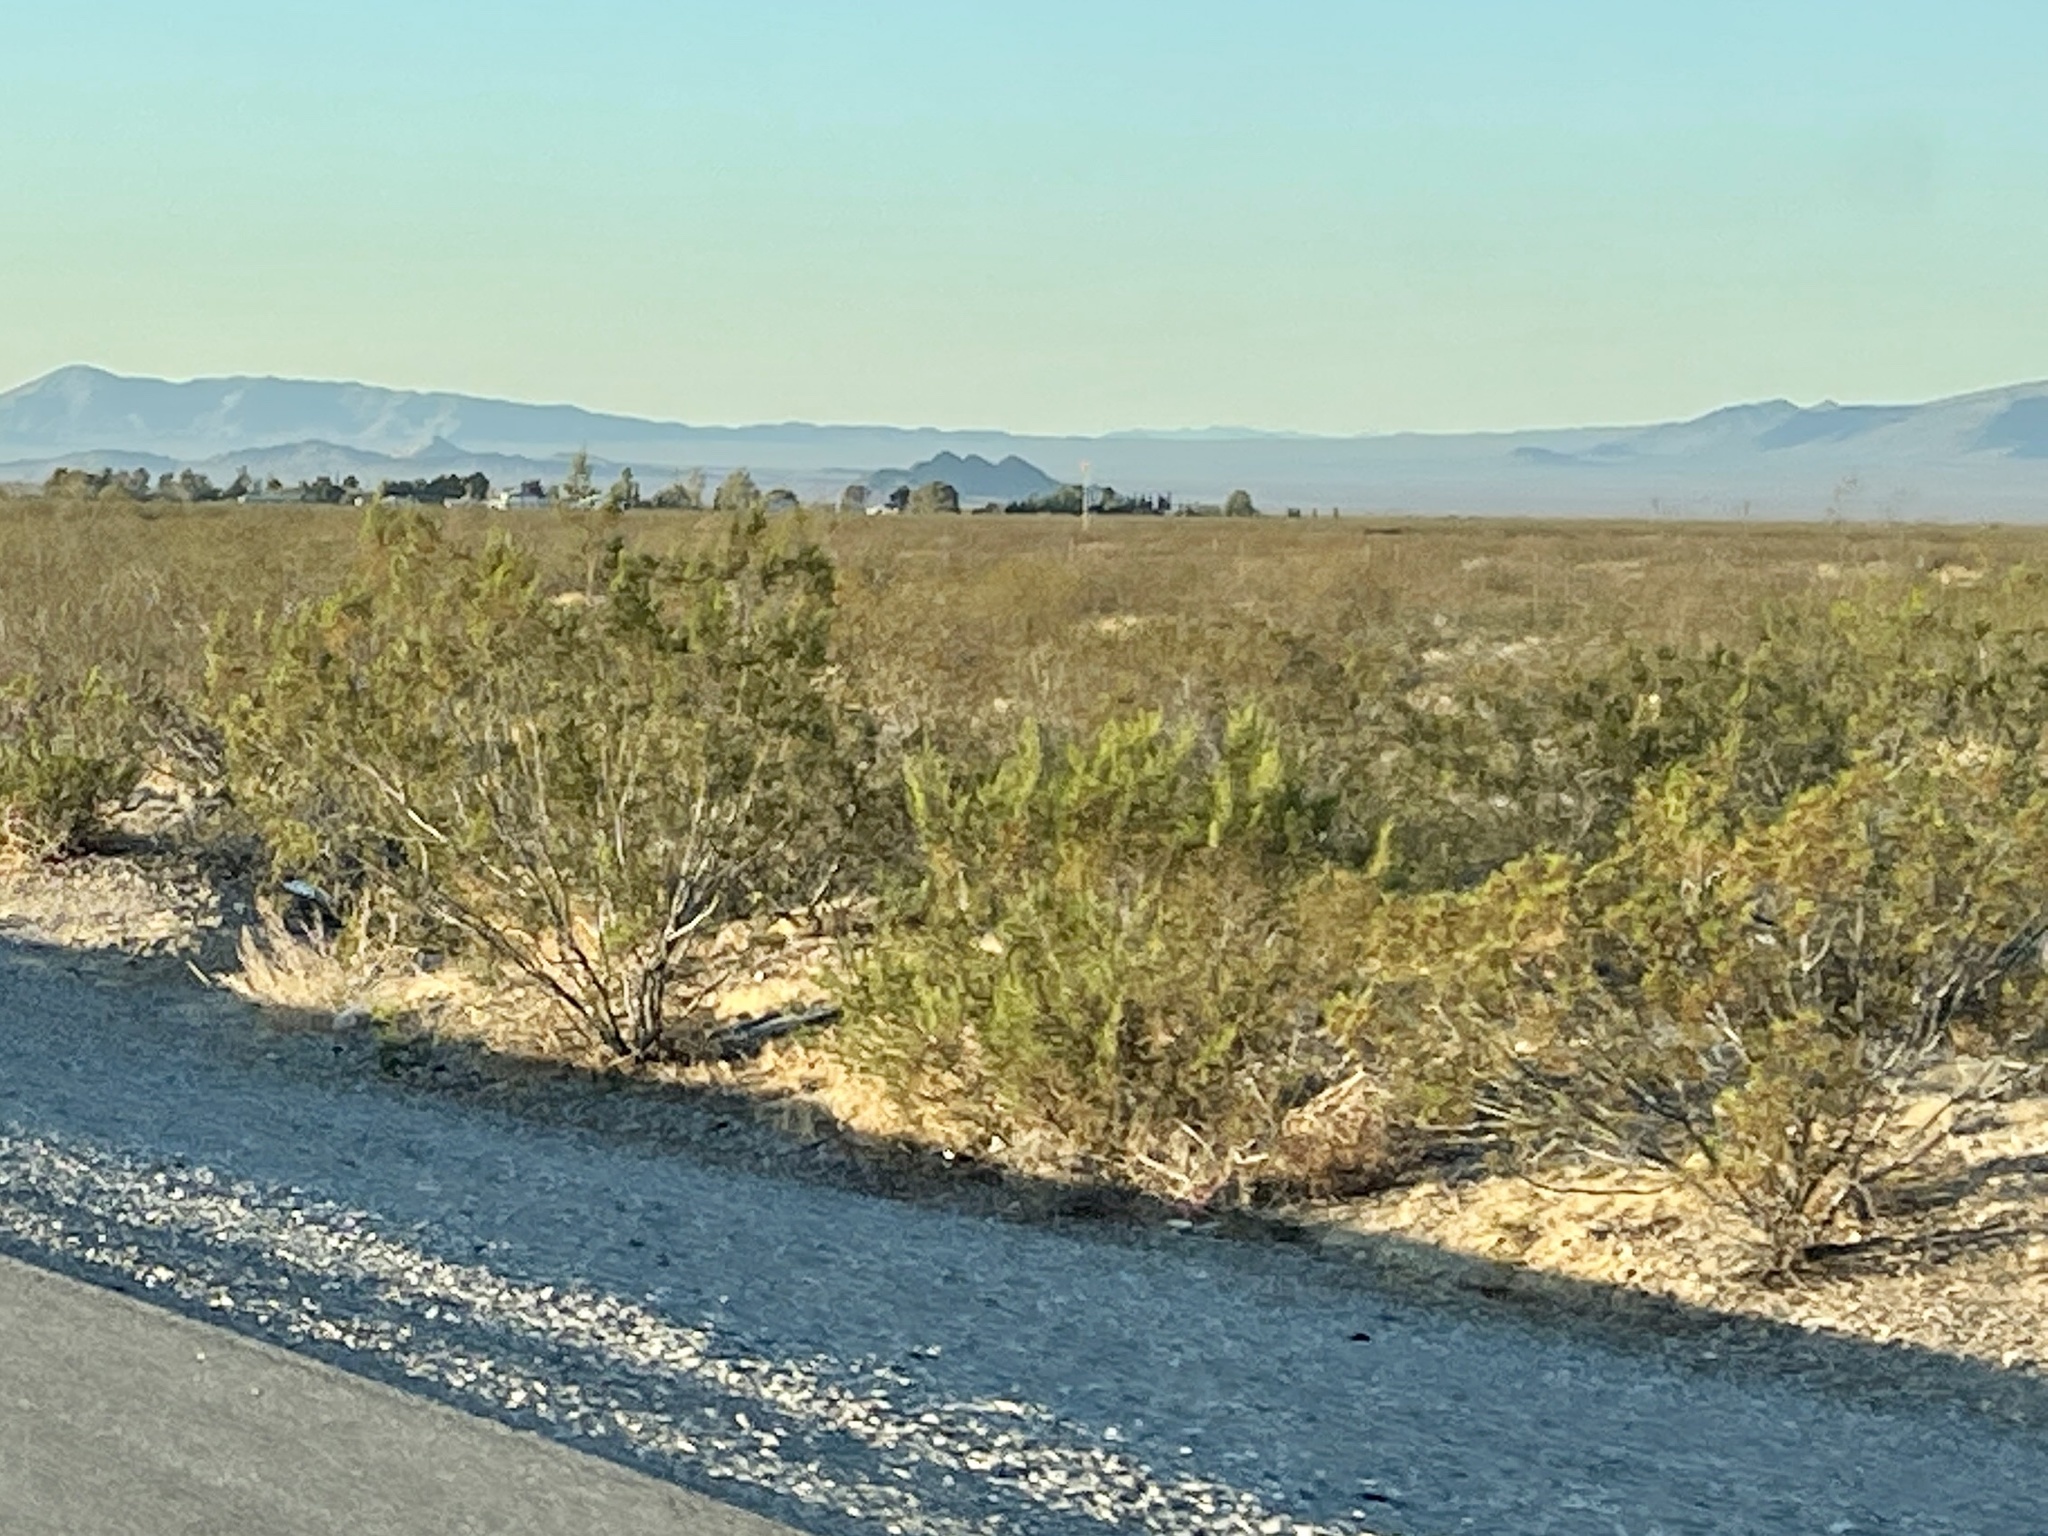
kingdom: Plantae
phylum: Tracheophyta
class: Magnoliopsida
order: Zygophyllales
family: Zygophyllaceae
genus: Larrea
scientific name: Larrea tridentata
